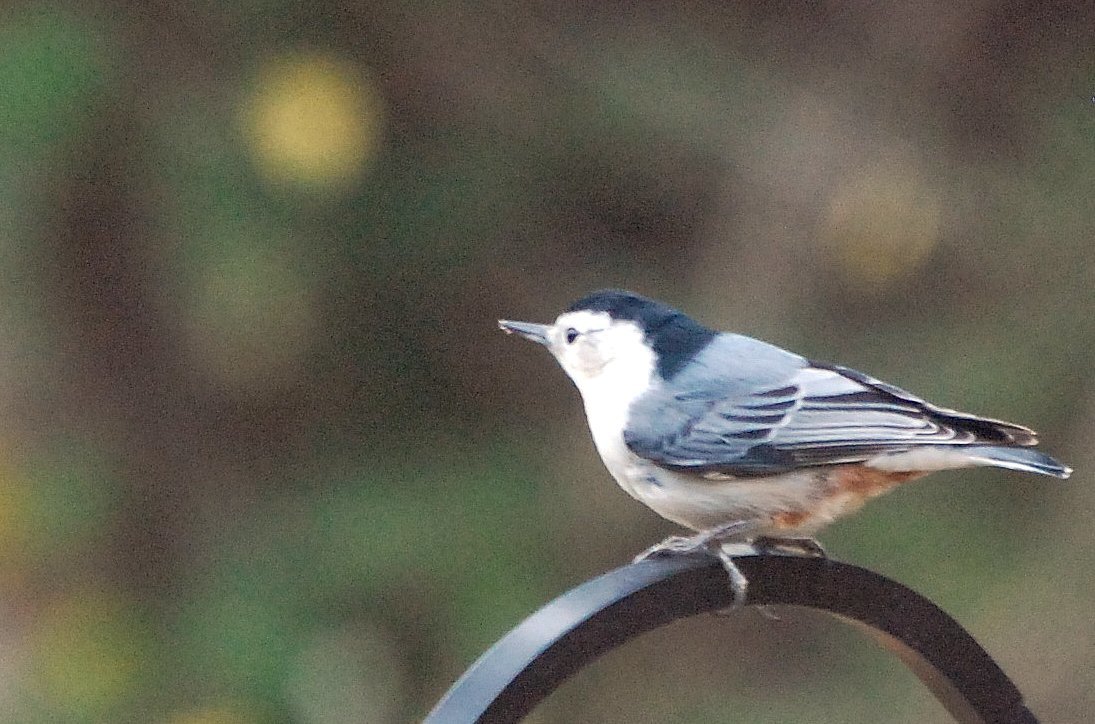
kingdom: Animalia
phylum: Chordata
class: Aves
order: Passeriformes
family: Sittidae
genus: Sitta
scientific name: Sitta carolinensis
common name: White-breasted nuthatch
